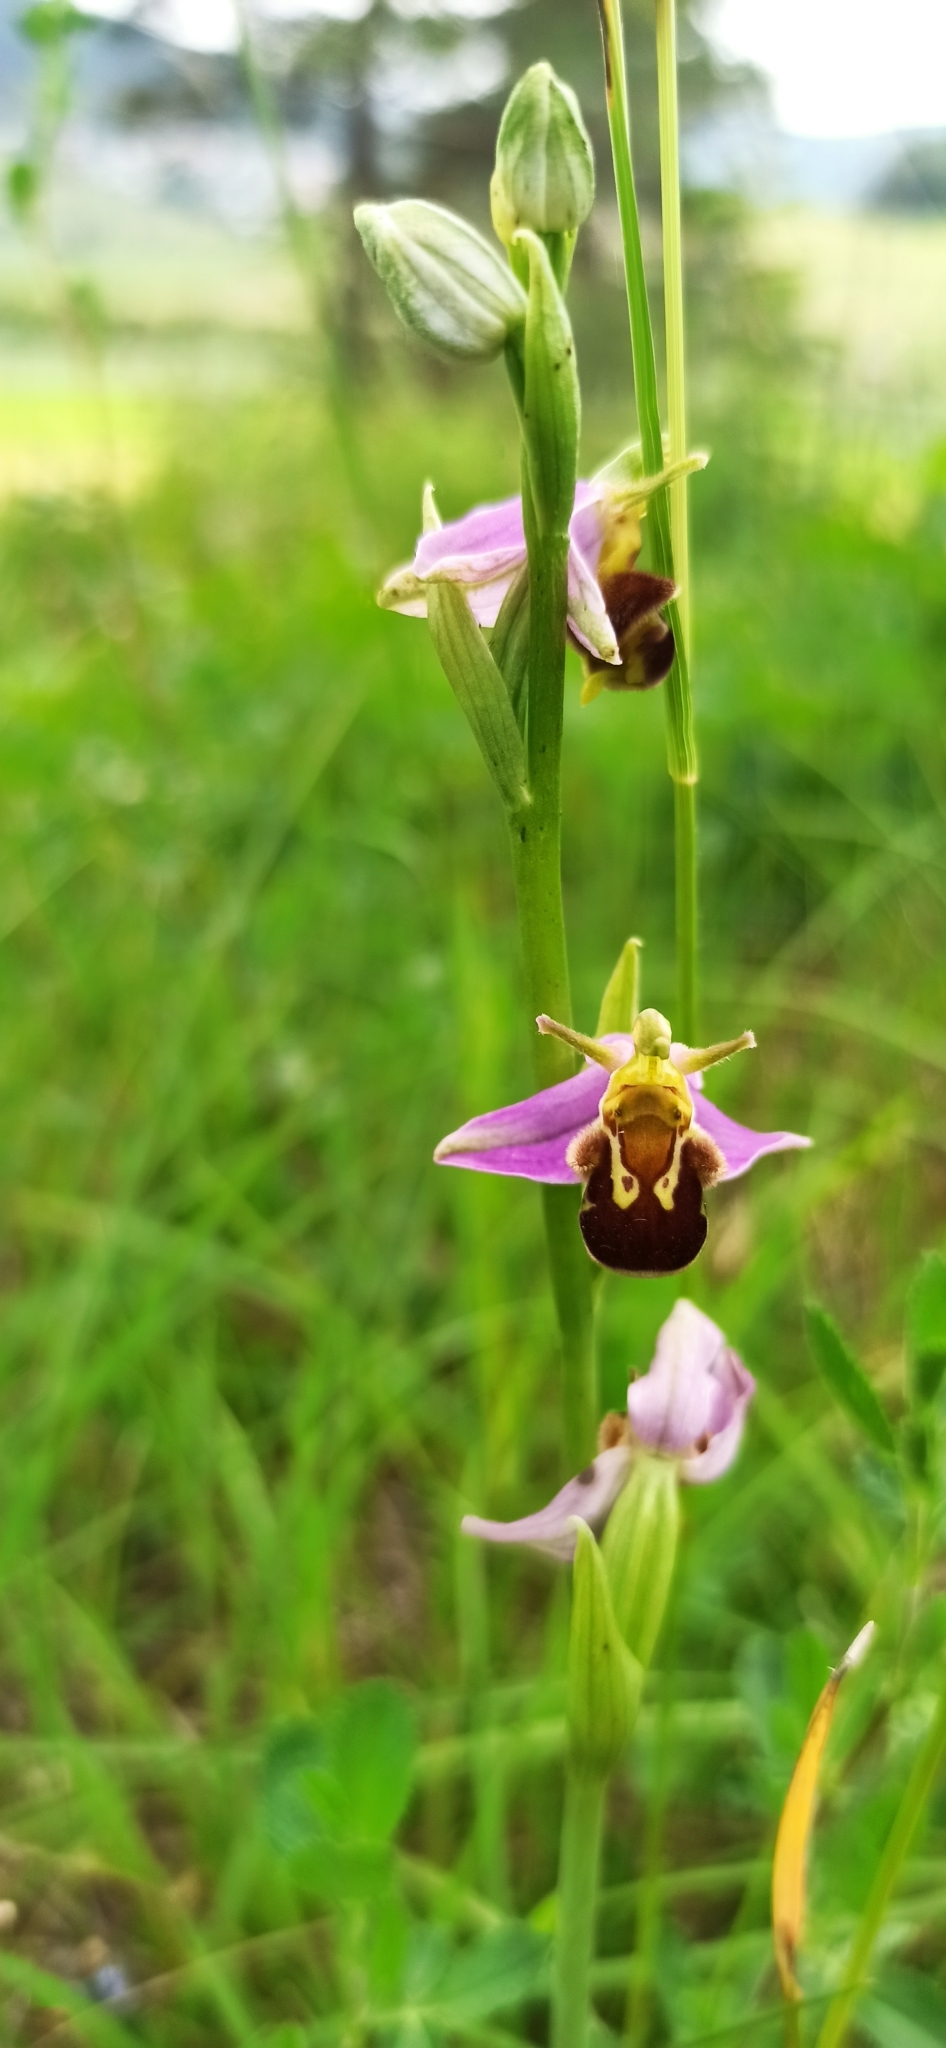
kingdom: Plantae
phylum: Tracheophyta
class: Liliopsida
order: Asparagales
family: Orchidaceae
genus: Ophrys
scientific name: Ophrys apifera
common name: Bee orchid
